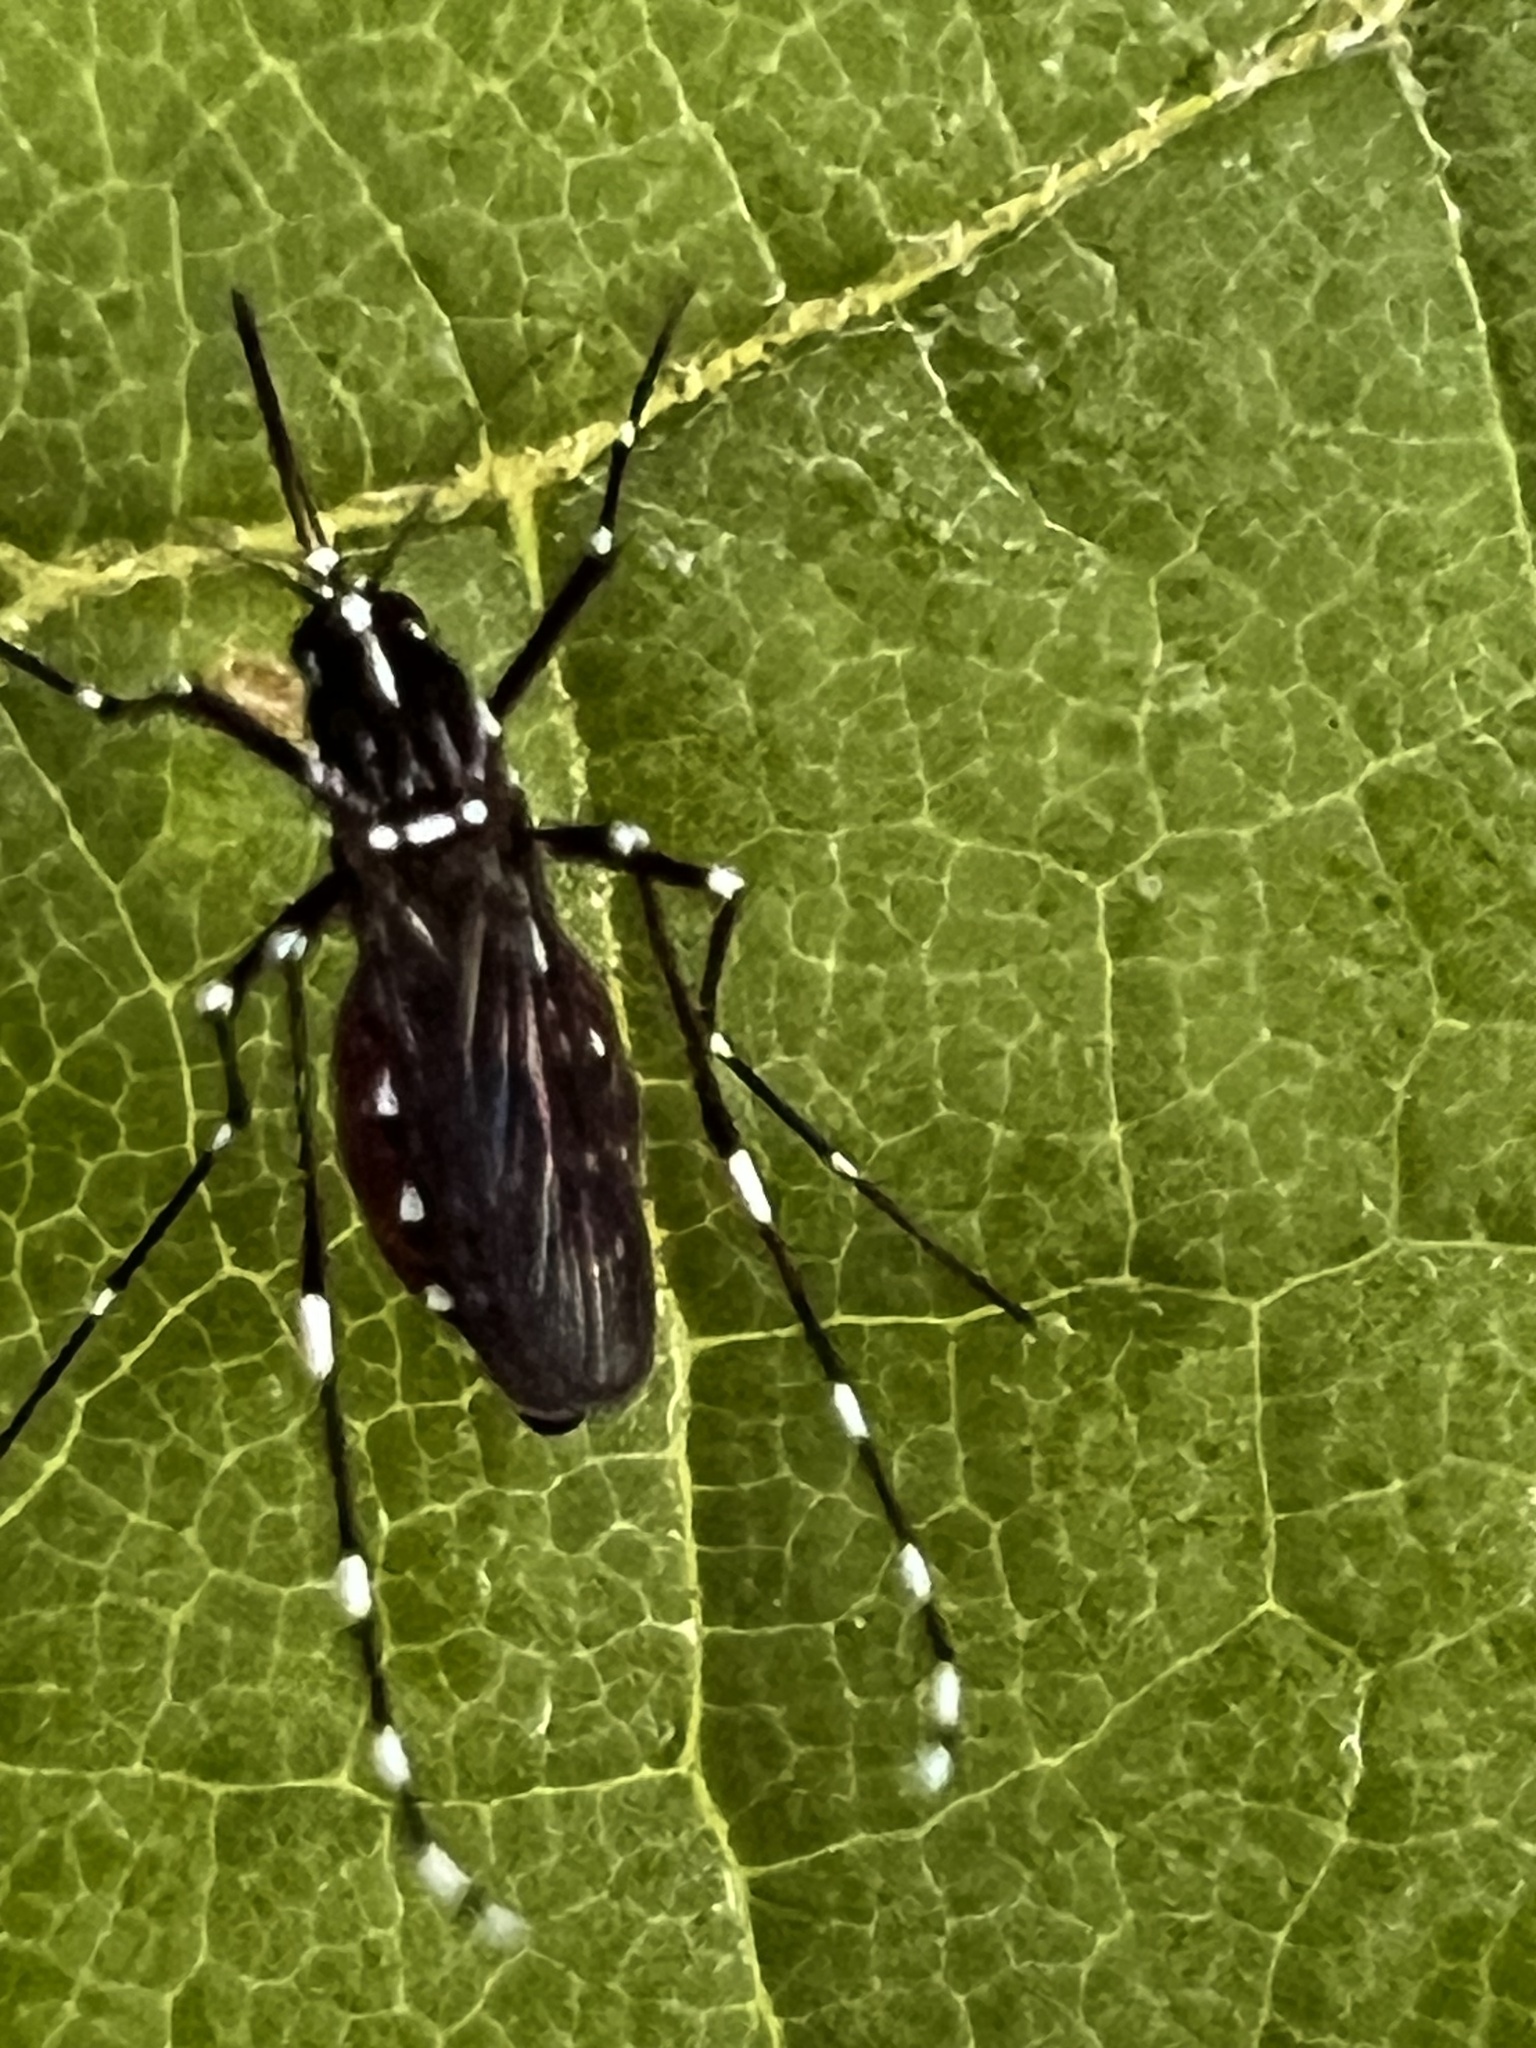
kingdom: Animalia
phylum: Arthropoda
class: Insecta
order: Diptera
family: Culicidae
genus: Aedes
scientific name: Aedes albopictus
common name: Tiger mosquito
